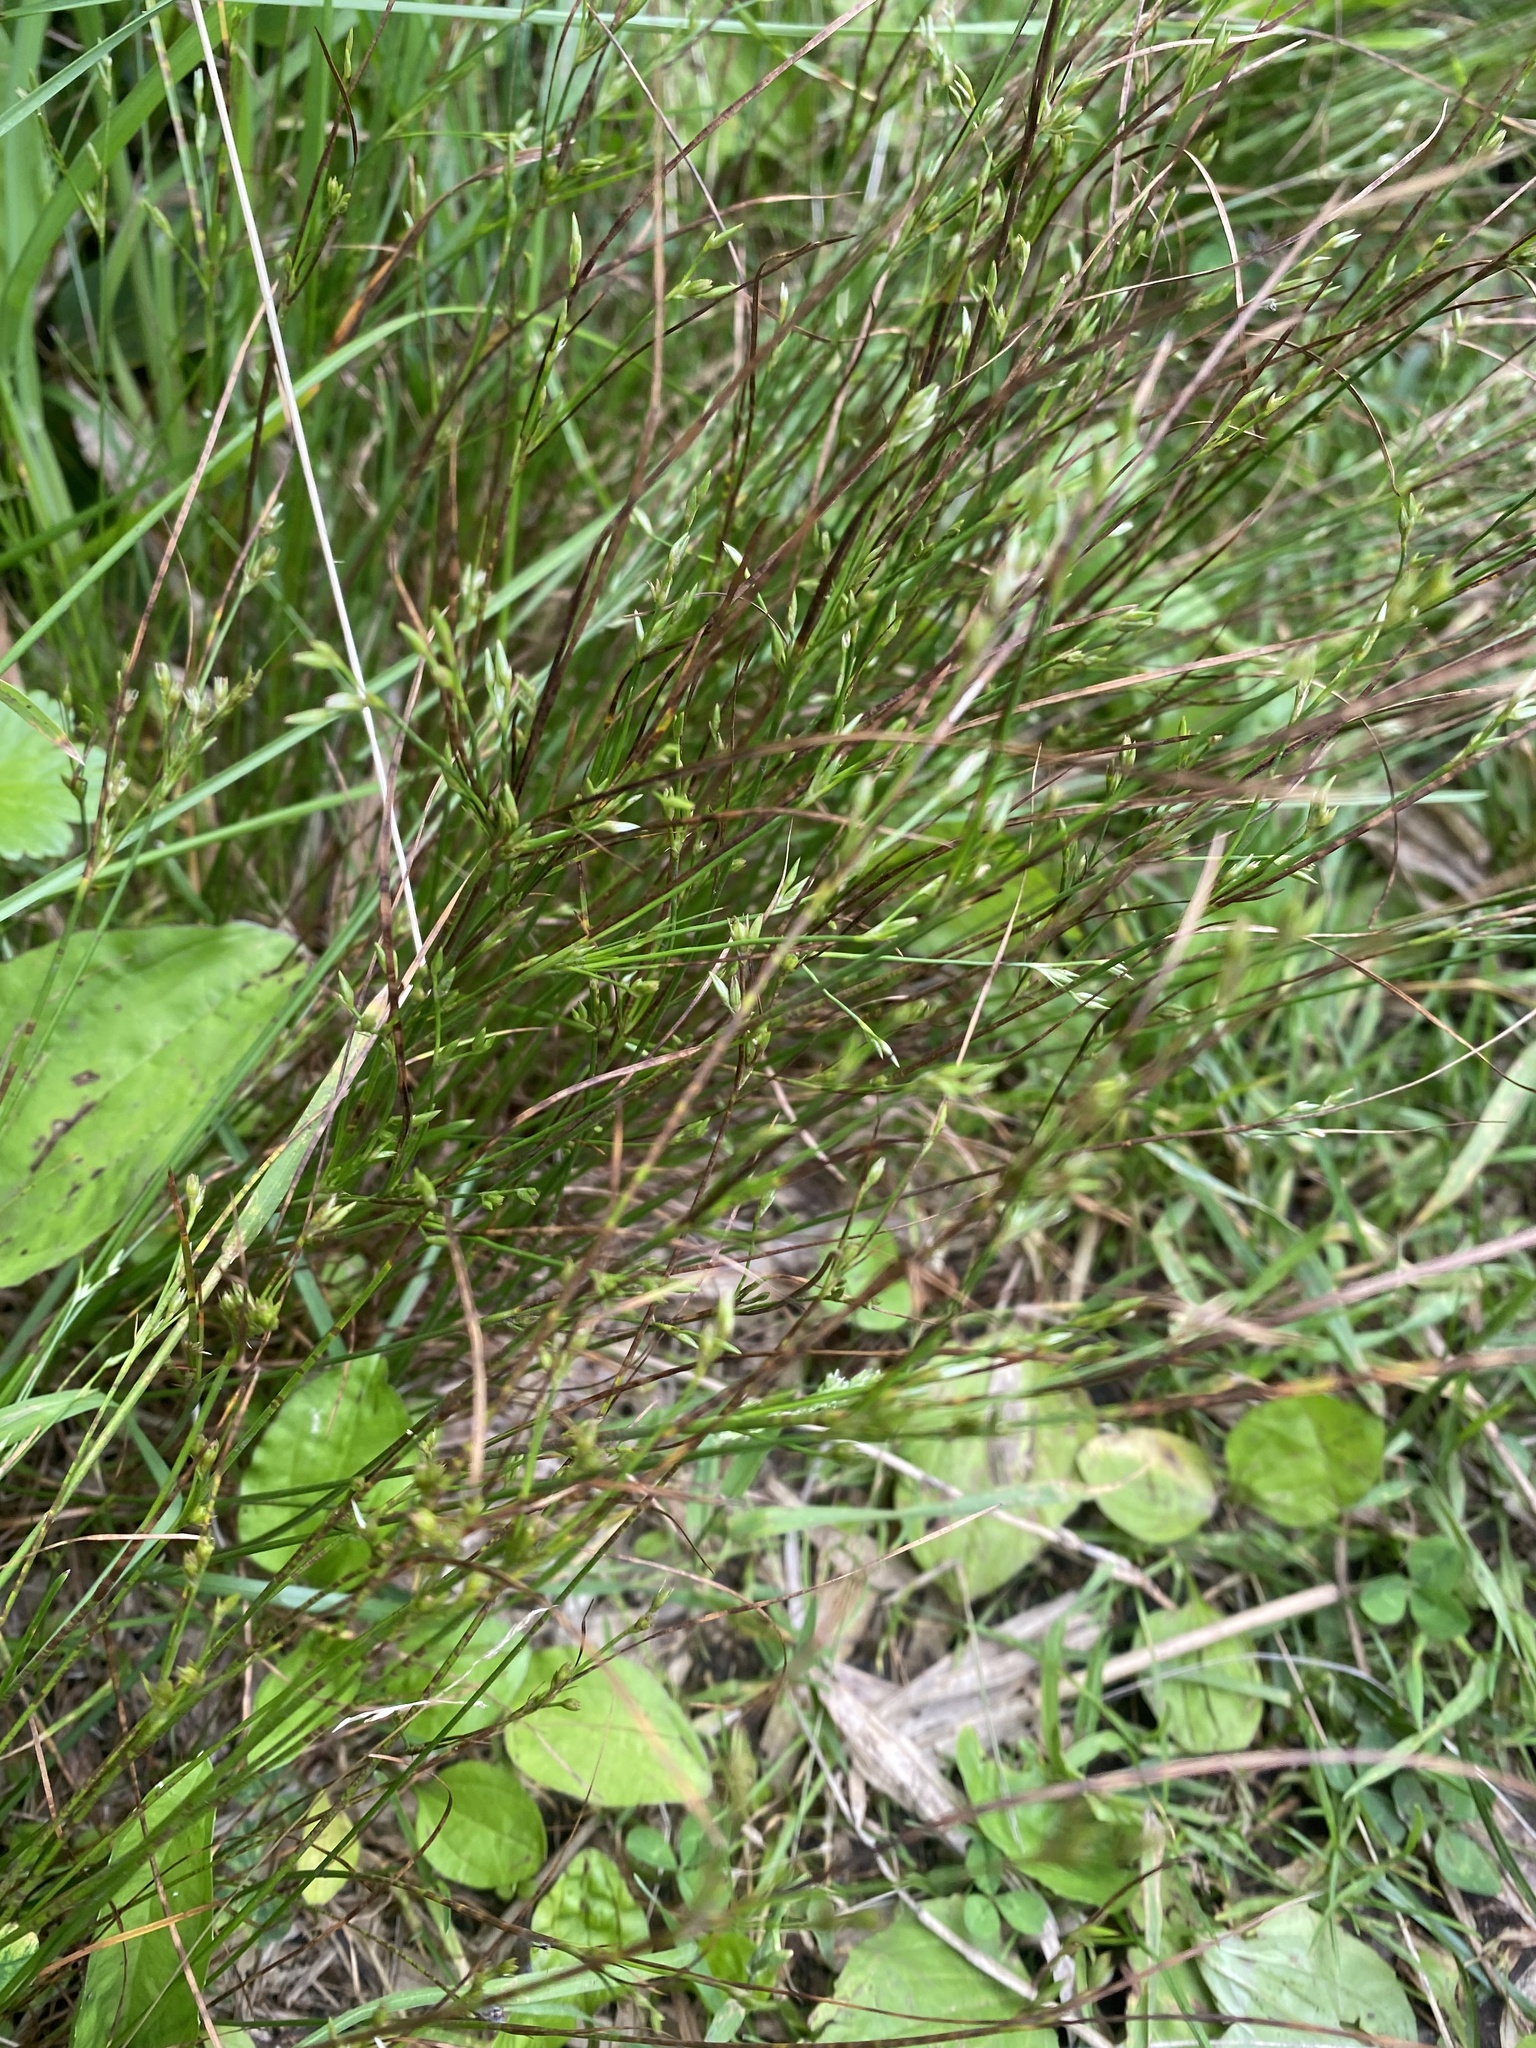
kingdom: Plantae
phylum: Tracheophyta
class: Liliopsida
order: Poales
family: Juncaceae
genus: Juncus
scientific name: Juncus tenuis
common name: Slender rush
